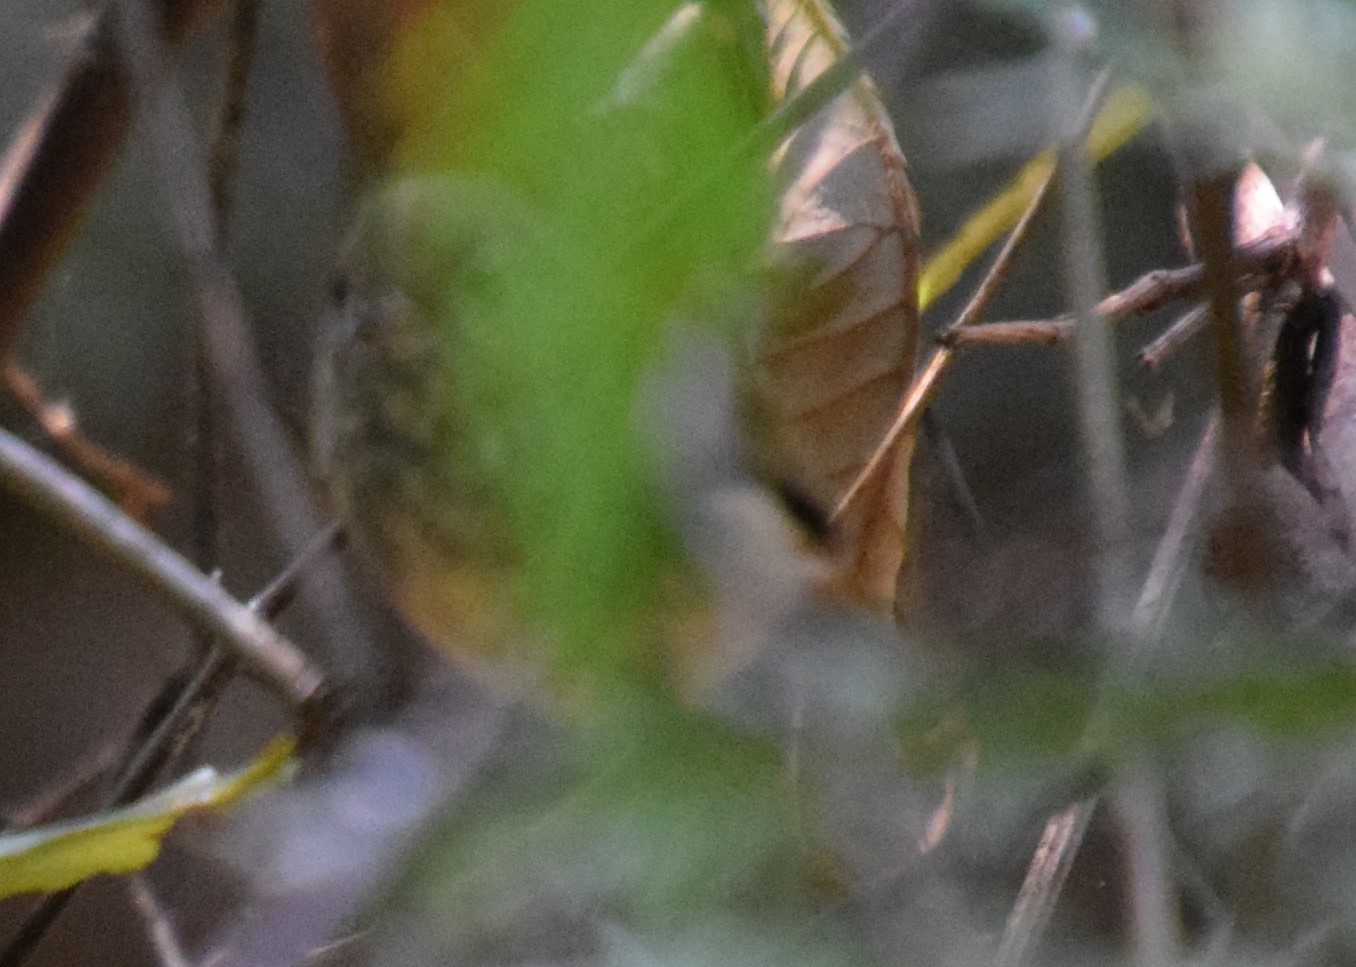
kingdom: Animalia
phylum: Chordata
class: Aves
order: Passeriformes
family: Acanthizidae
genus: Acanthiza
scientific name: Acanthiza pusilla
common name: Brown thornbill
